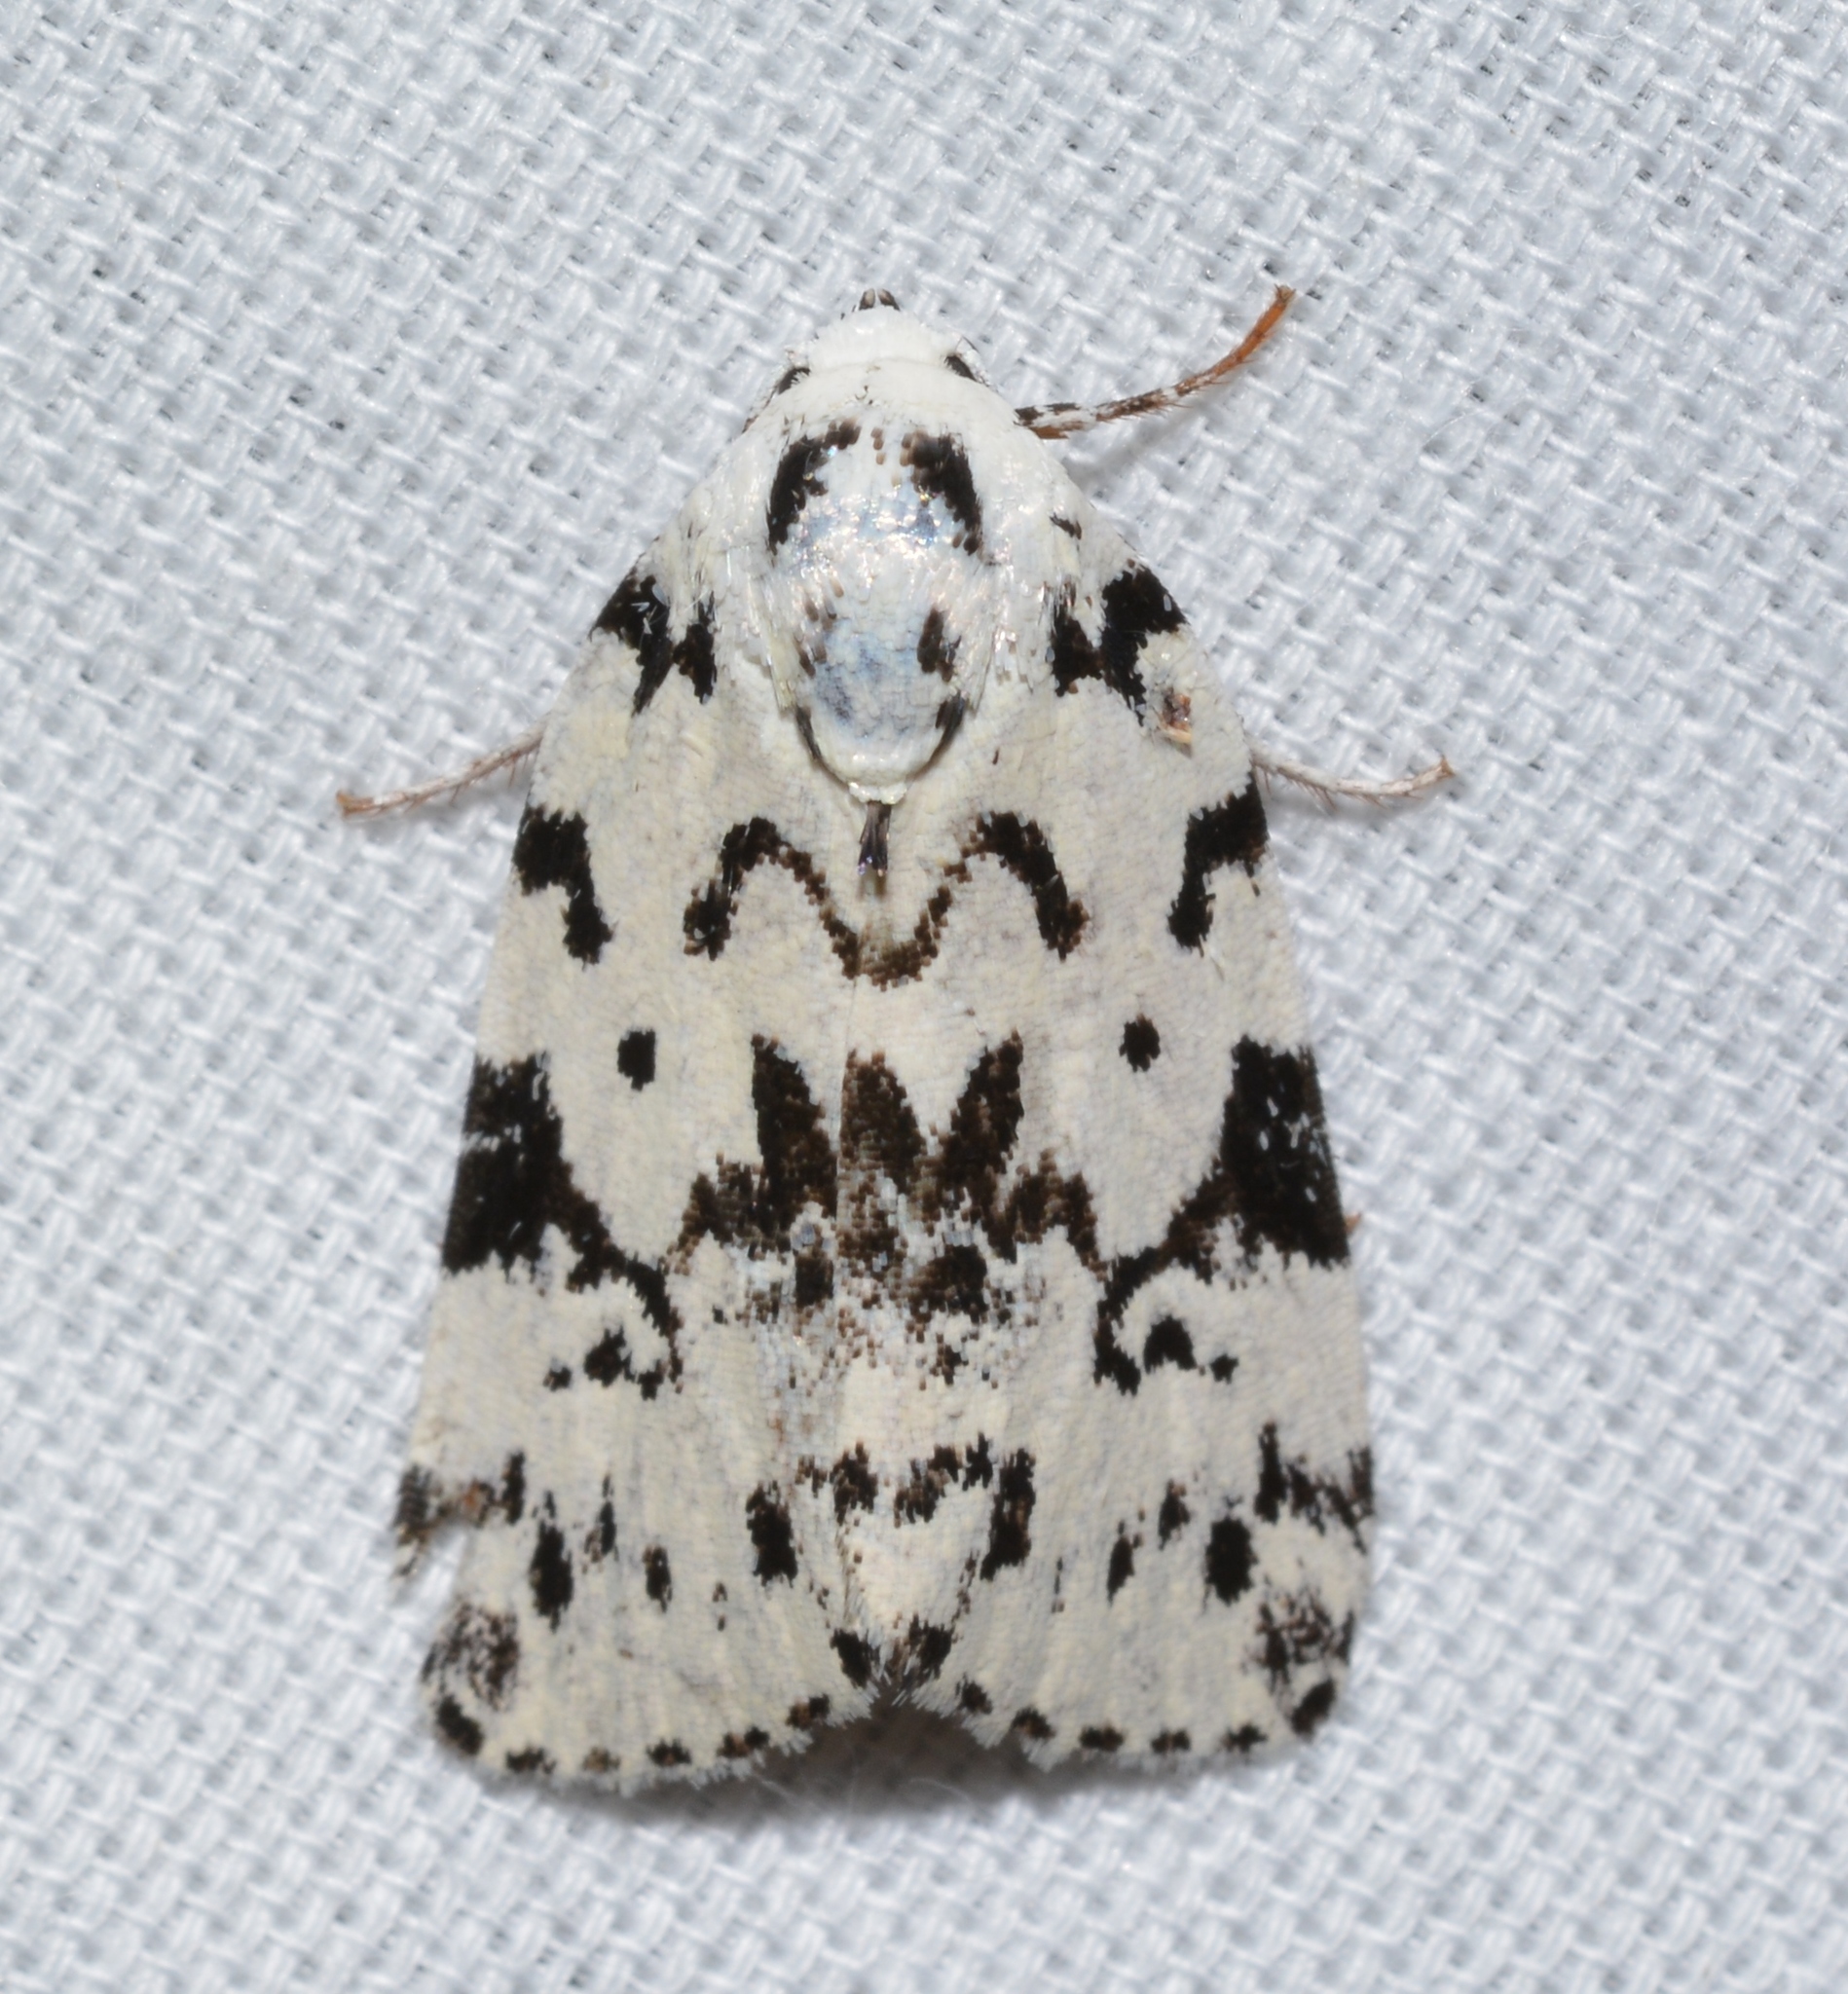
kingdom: Animalia
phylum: Arthropoda
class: Insecta
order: Lepidoptera
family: Noctuidae
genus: Polygrammate
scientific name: Polygrammate hebraeicum
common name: Hebrew moth
